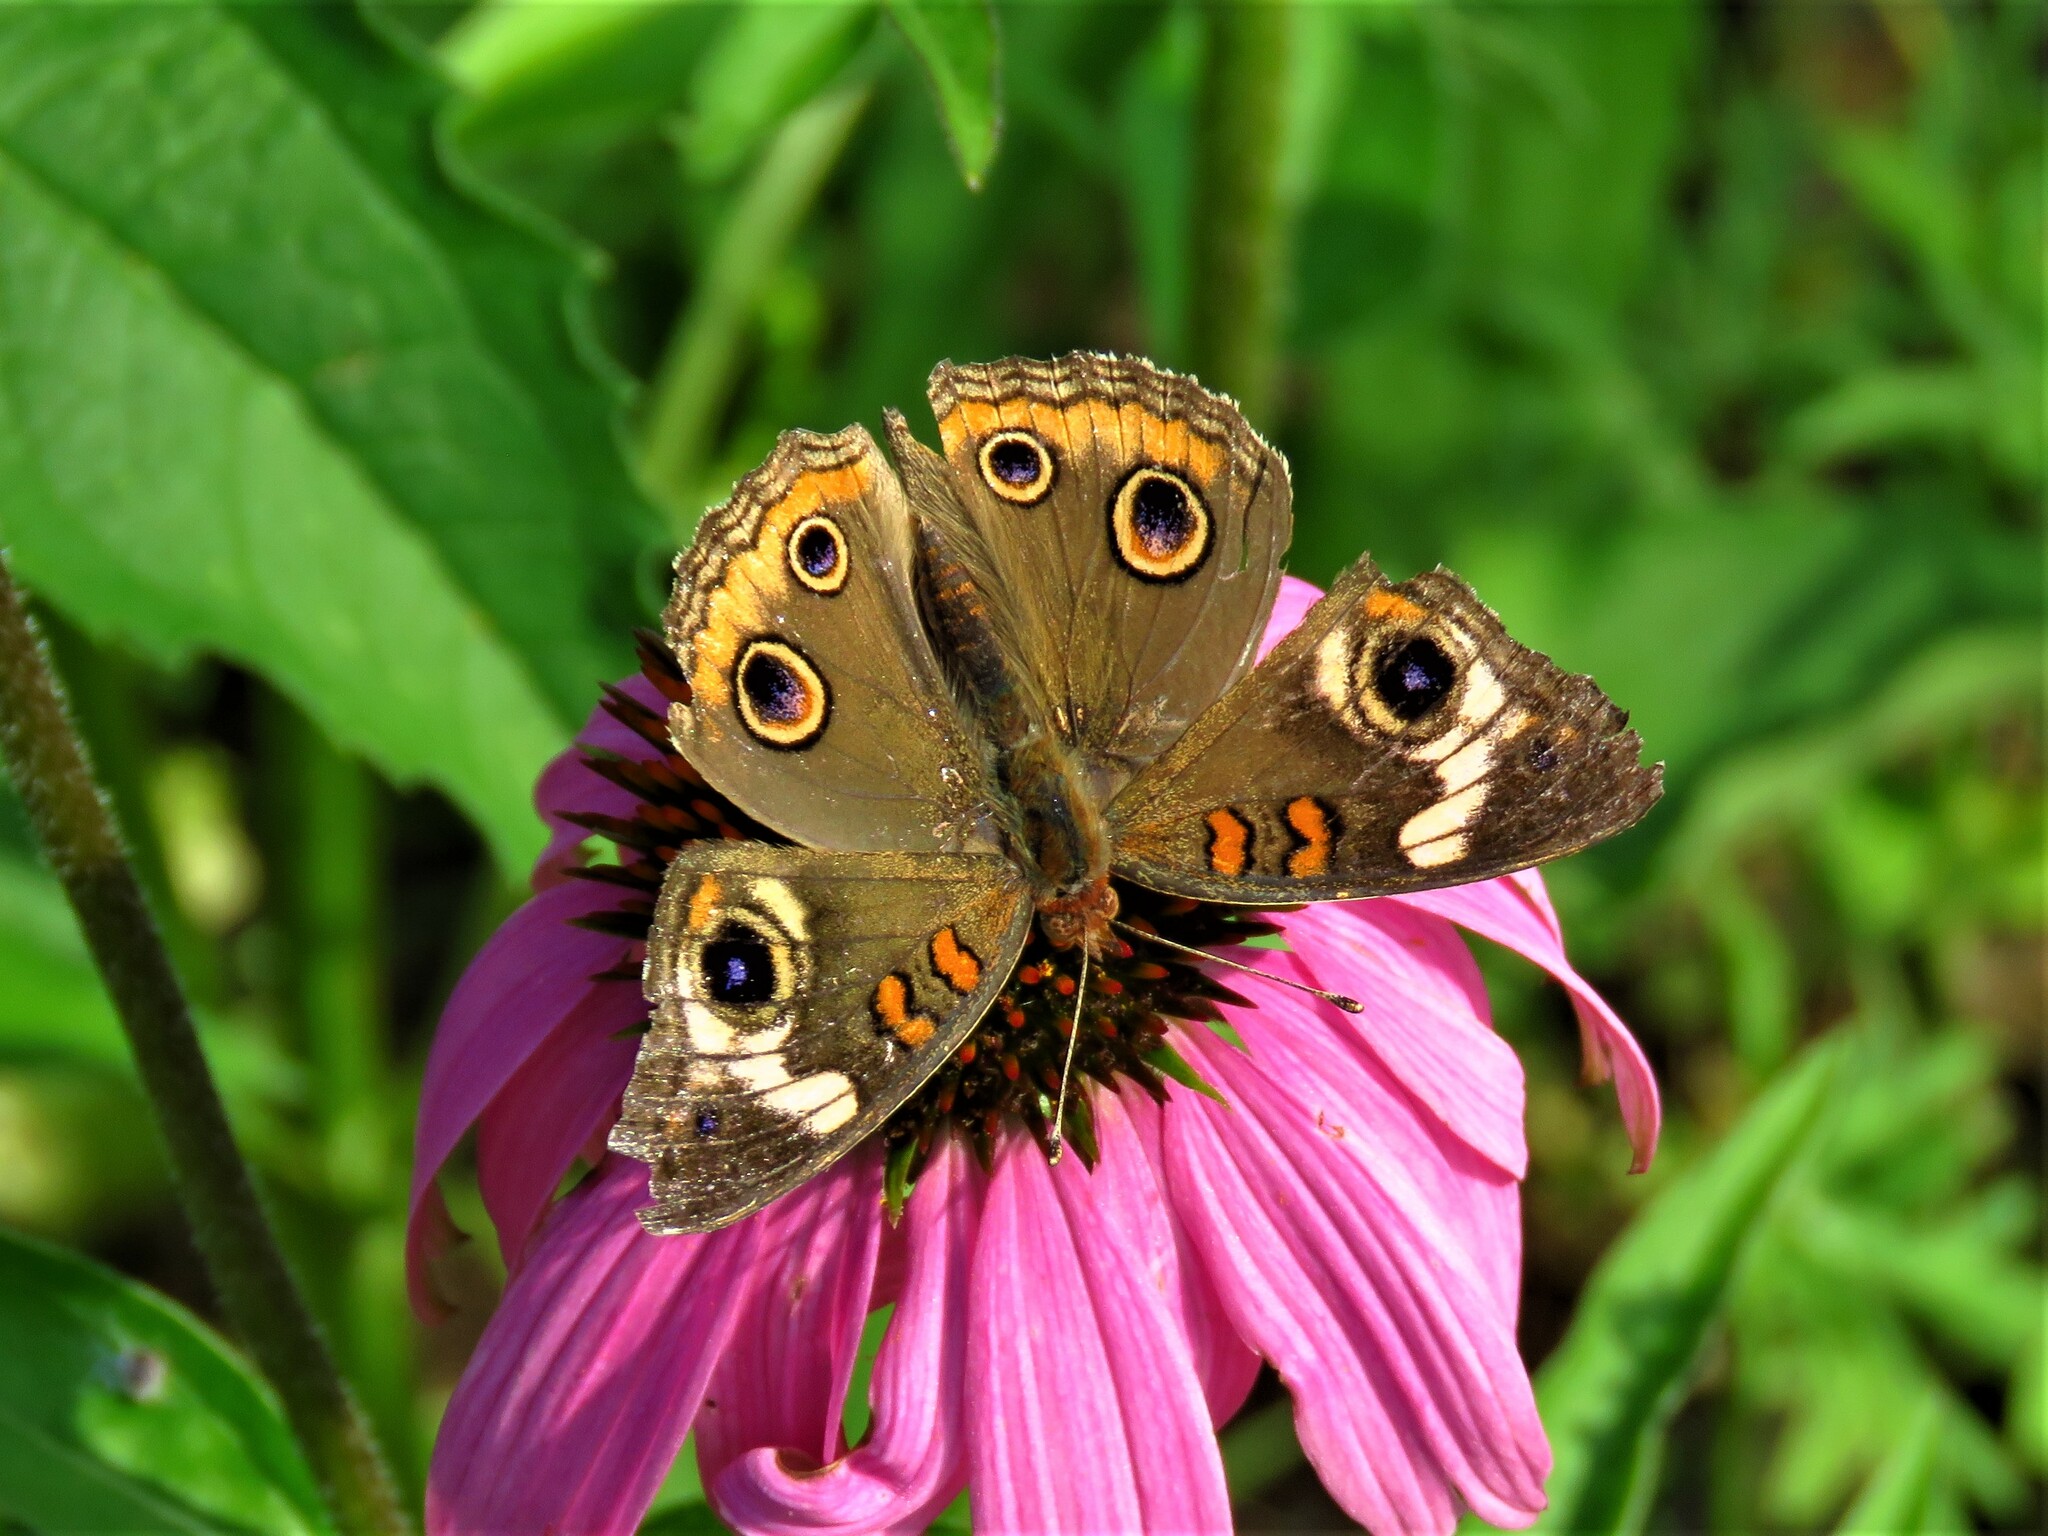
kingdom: Animalia
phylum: Arthropoda
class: Insecta
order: Lepidoptera
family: Nymphalidae
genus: Junonia
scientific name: Junonia coenia
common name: Common buckeye
